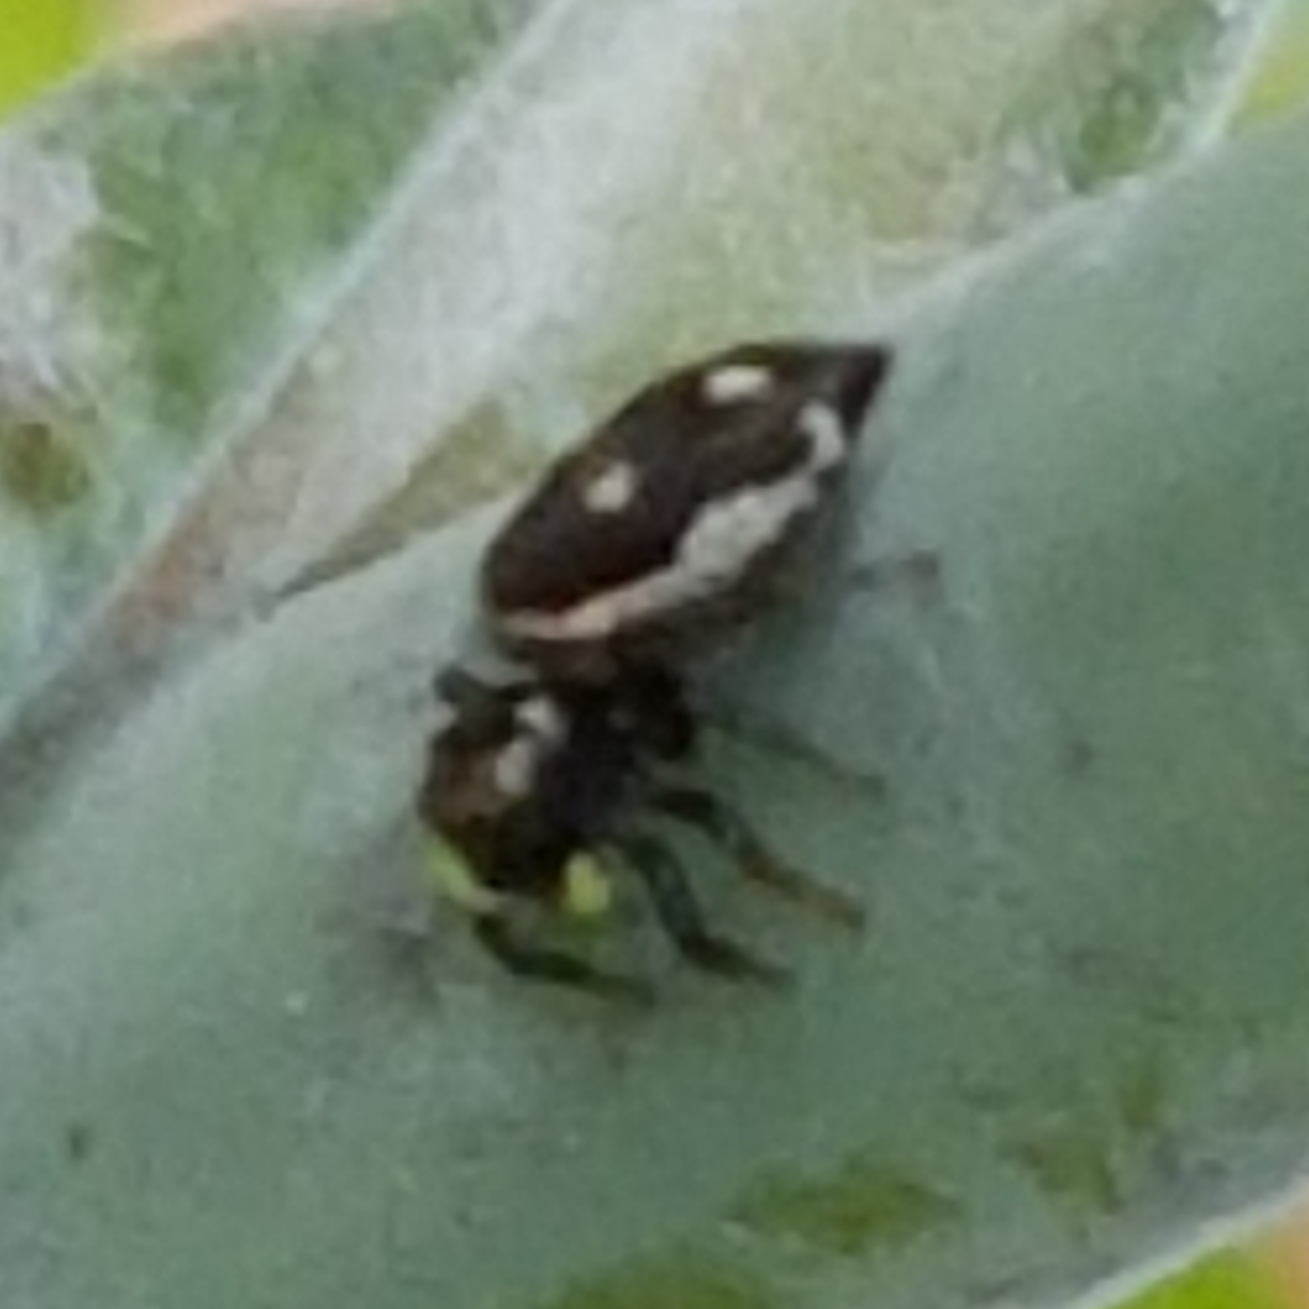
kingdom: Animalia
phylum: Arthropoda
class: Arachnida
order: Araneae
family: Salticidae
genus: Heliophanus
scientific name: Heliophanus apiatus
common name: Sun jumping spider
